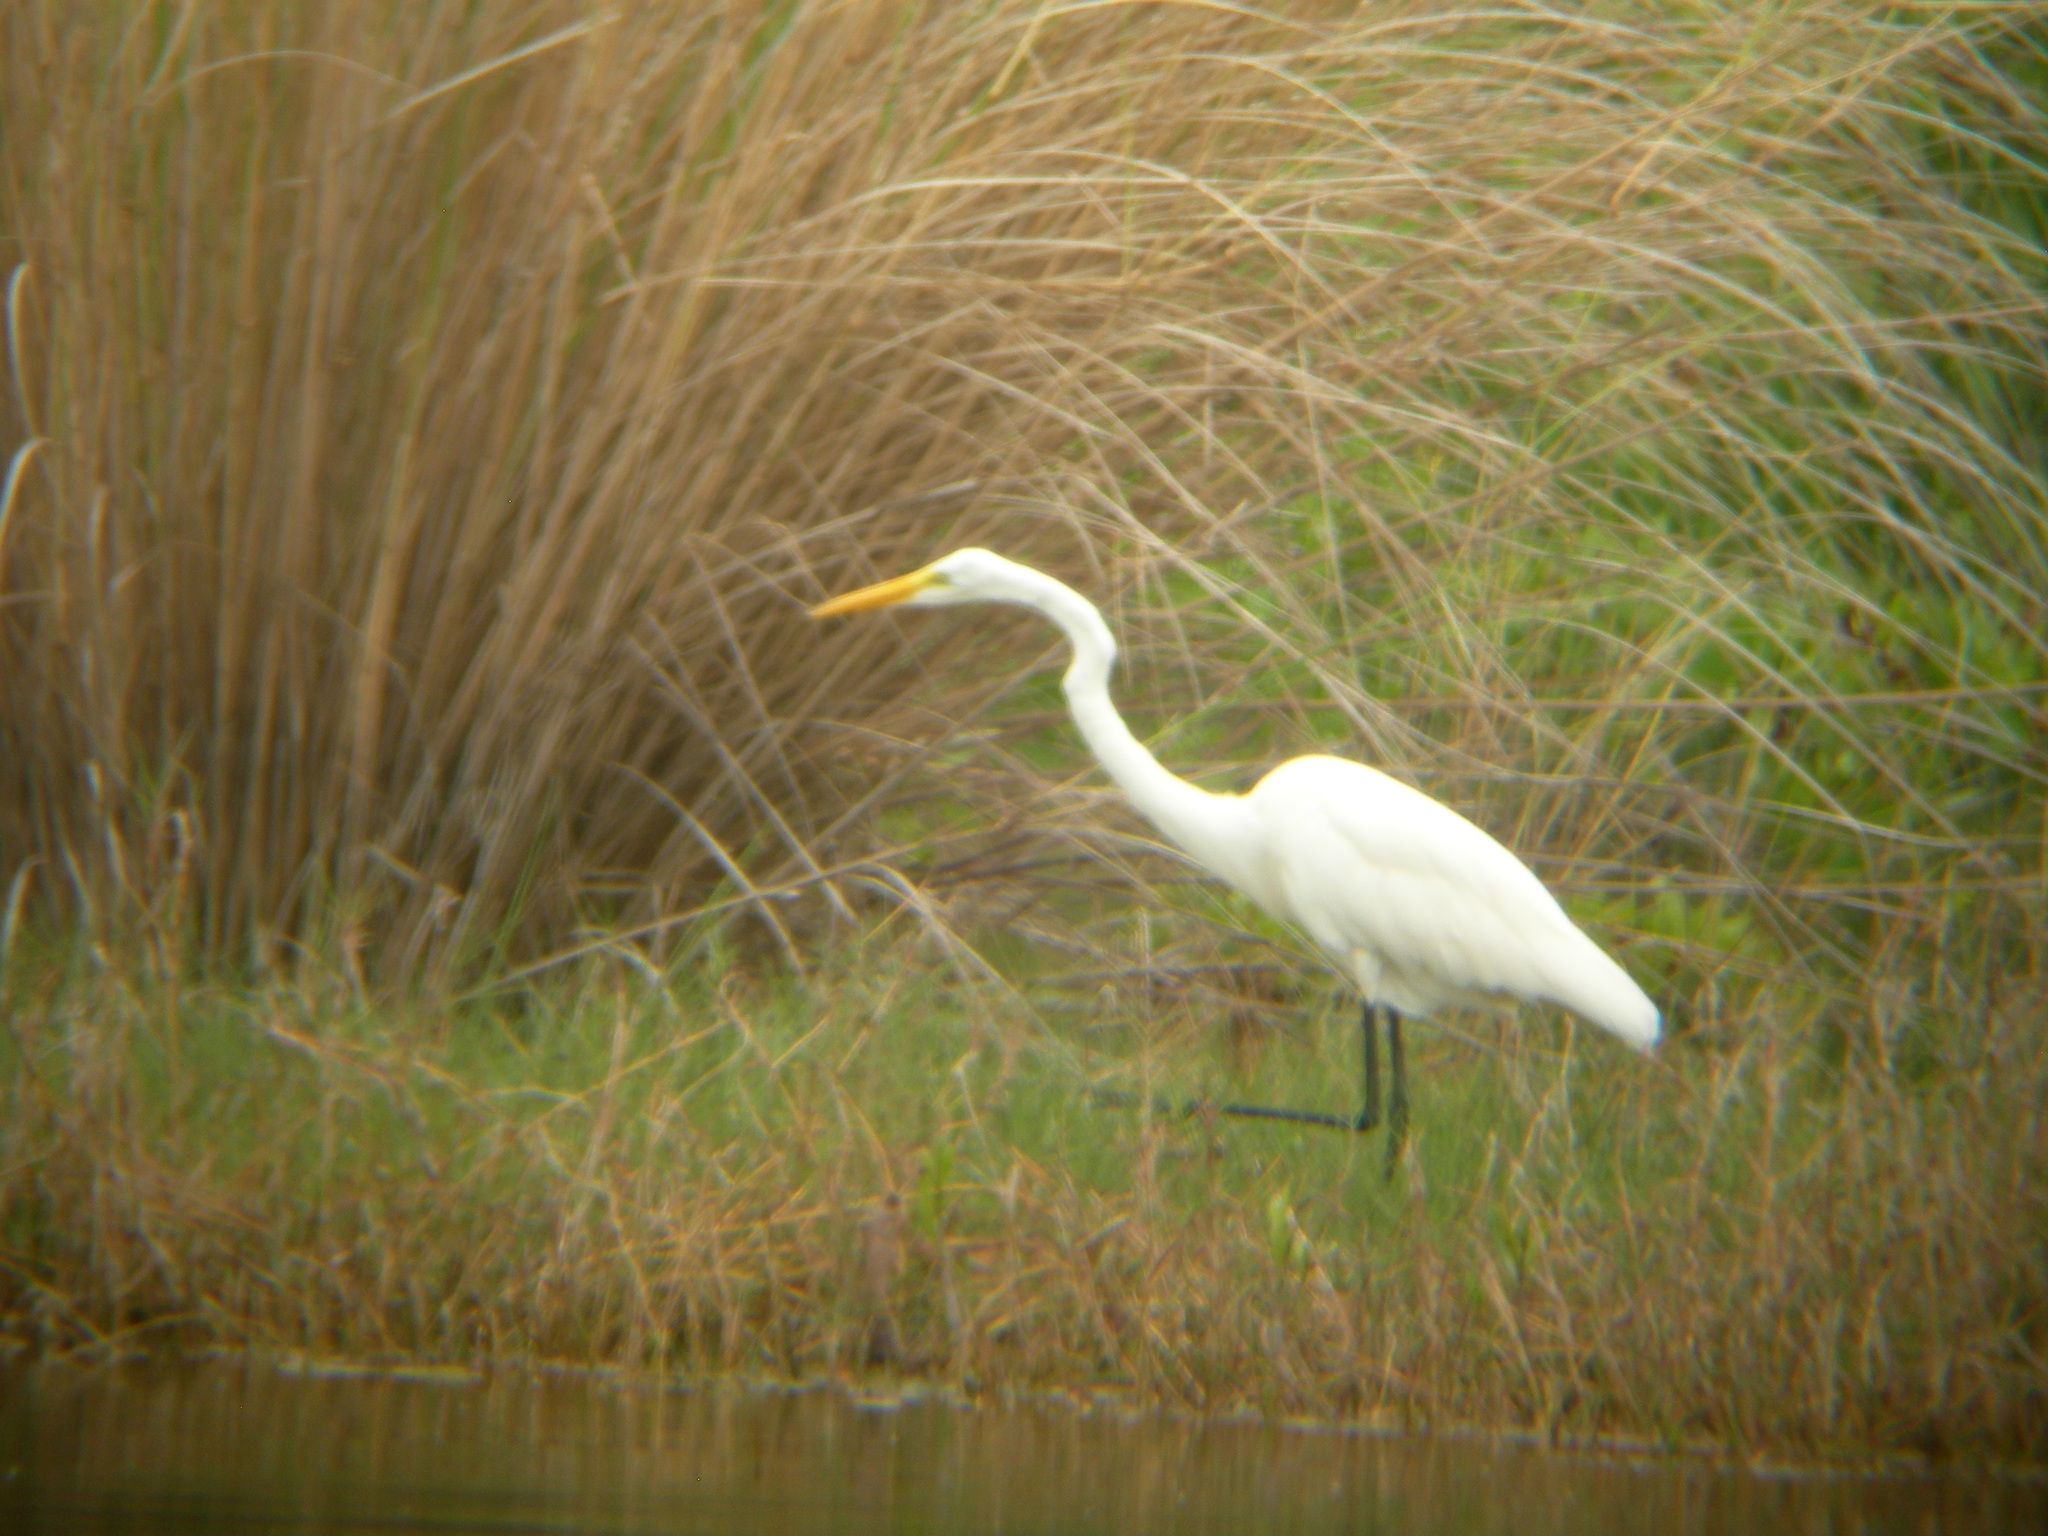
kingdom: Animalia
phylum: Chordata
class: Aves
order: Pelecaniformes
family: Ardeidae
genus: Ardea
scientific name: Ardea alba
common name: Great egret
